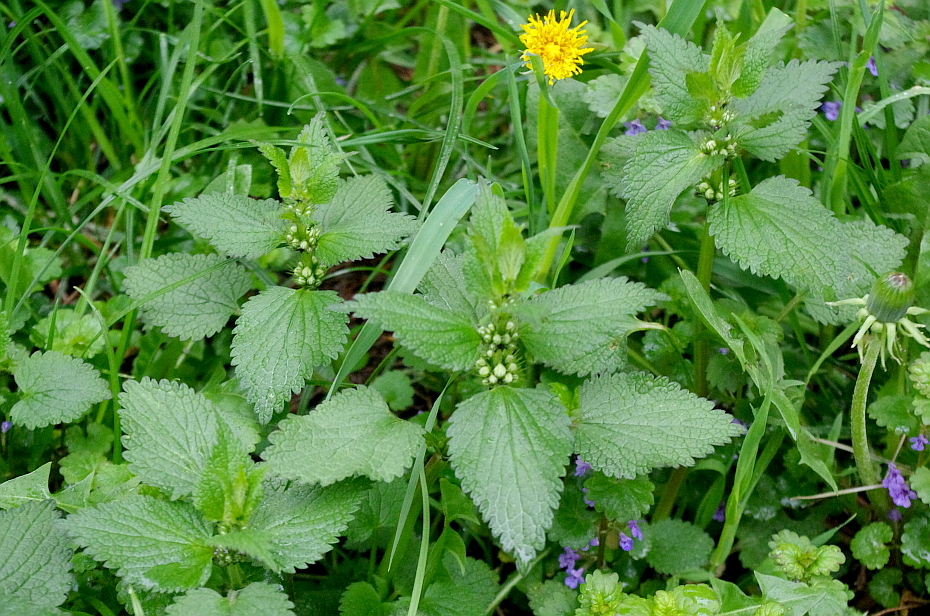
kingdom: Plantae
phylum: Tracheophyta
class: Magnoliopsida
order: Lamiales
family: Lamiaceae
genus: Lamium
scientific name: Lamium album
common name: White dead-nettle
